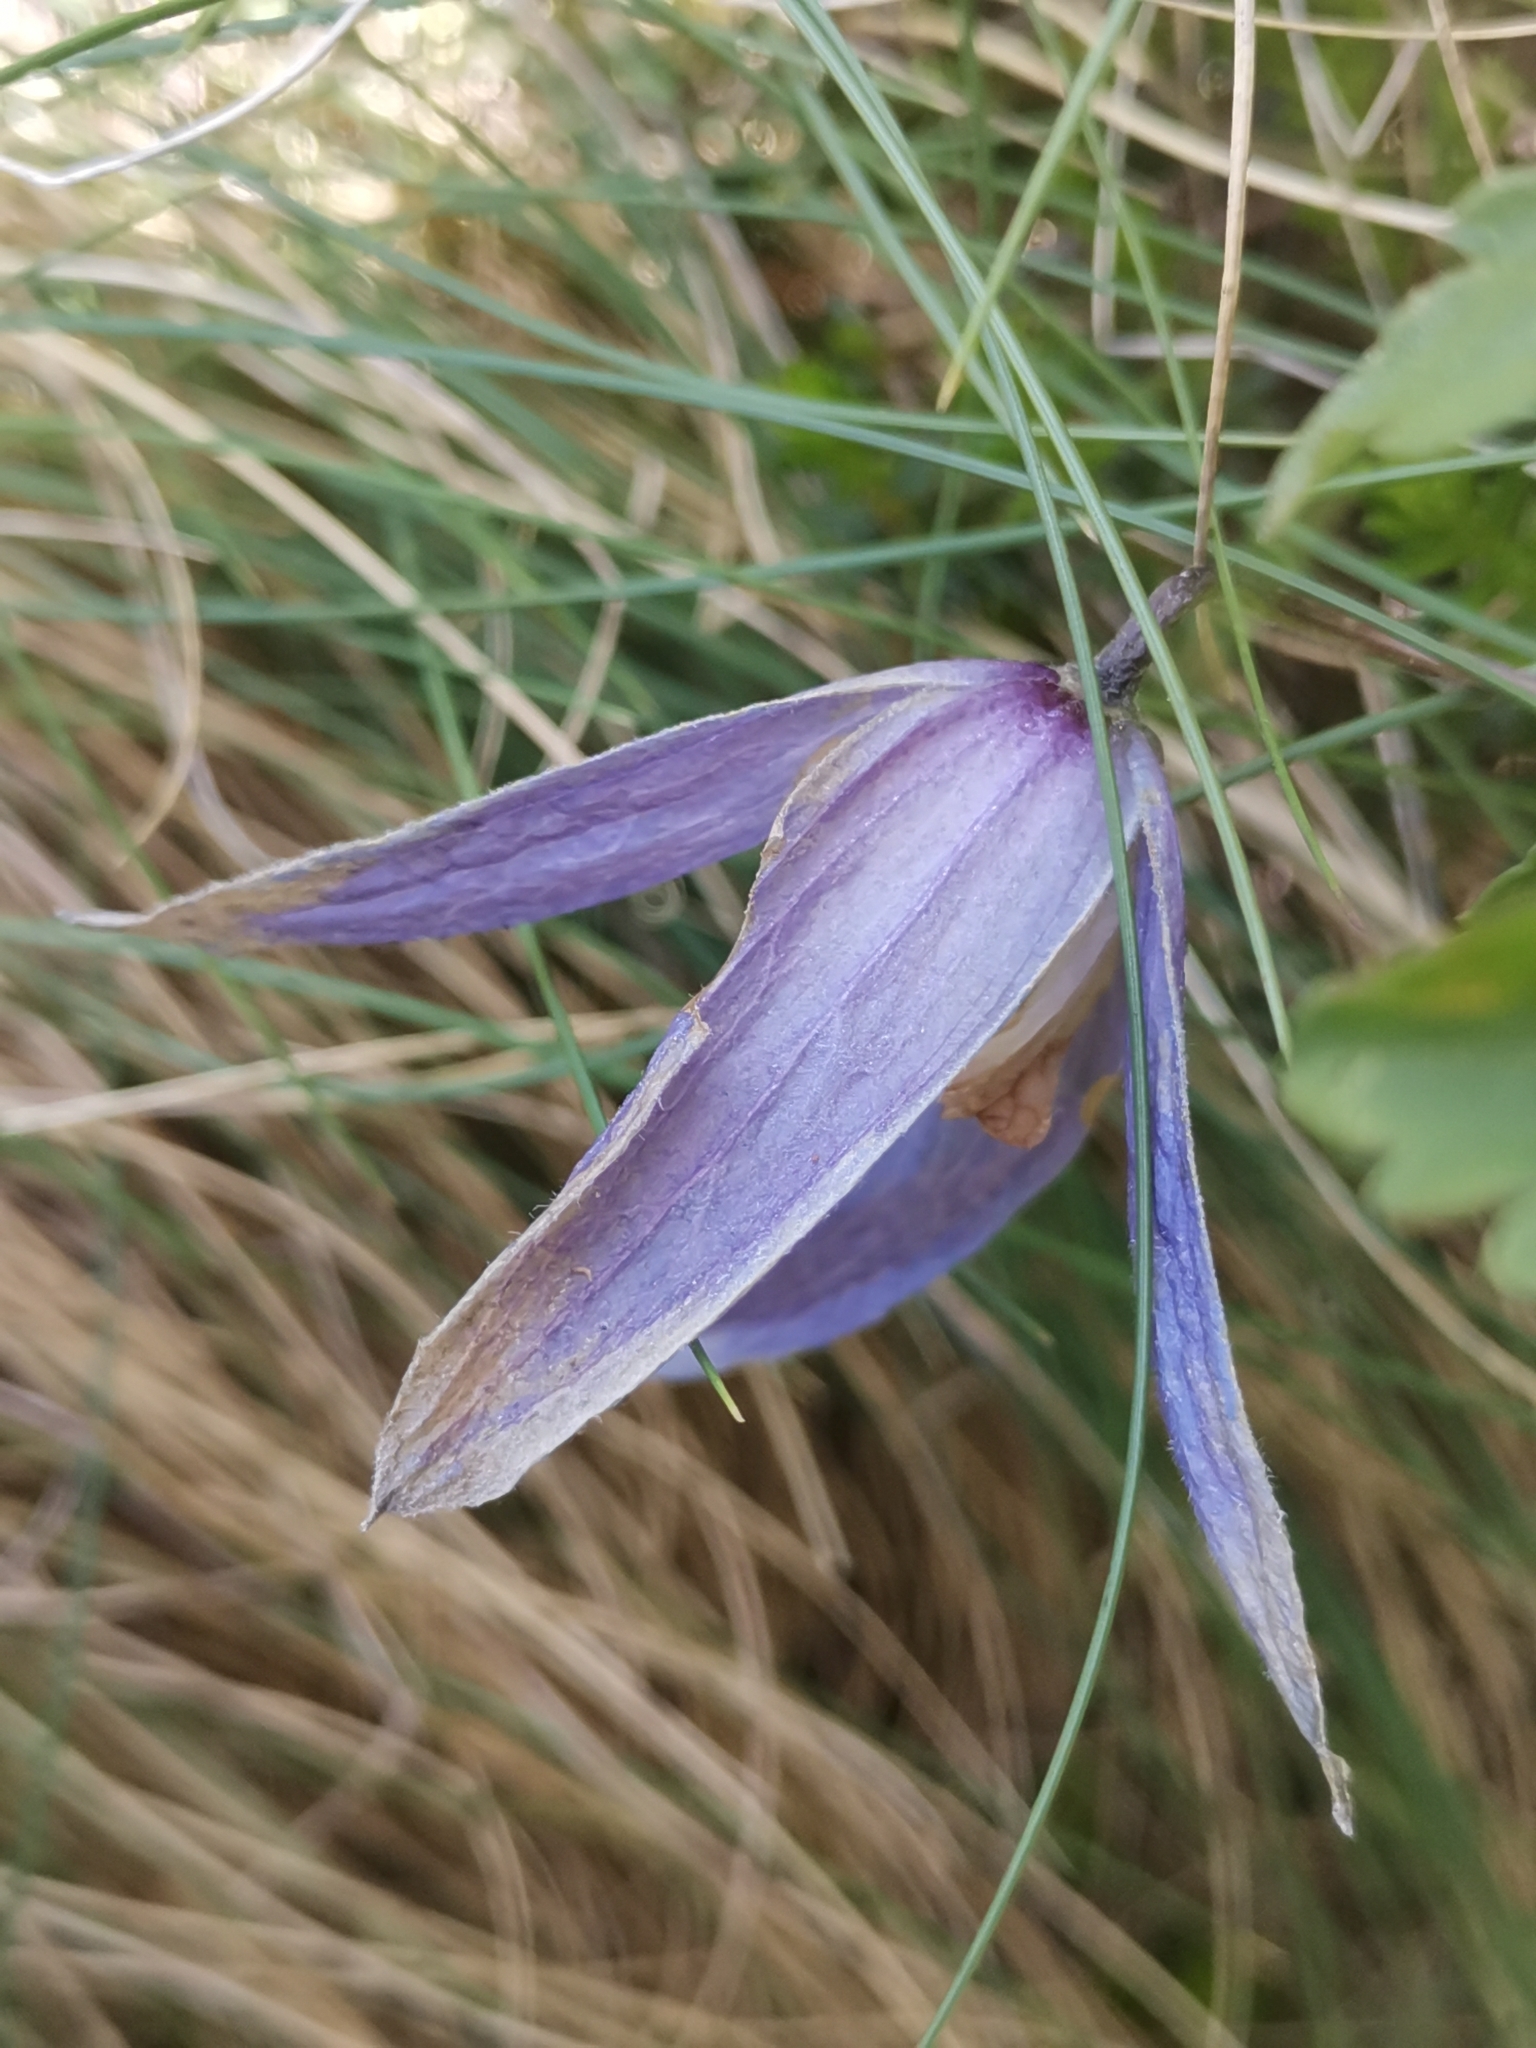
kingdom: Plantae
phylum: Tracheophyta
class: Magnoliopsida
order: Ranunculales
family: Ranunculaceae
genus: Clematis
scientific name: Clematis alpina
